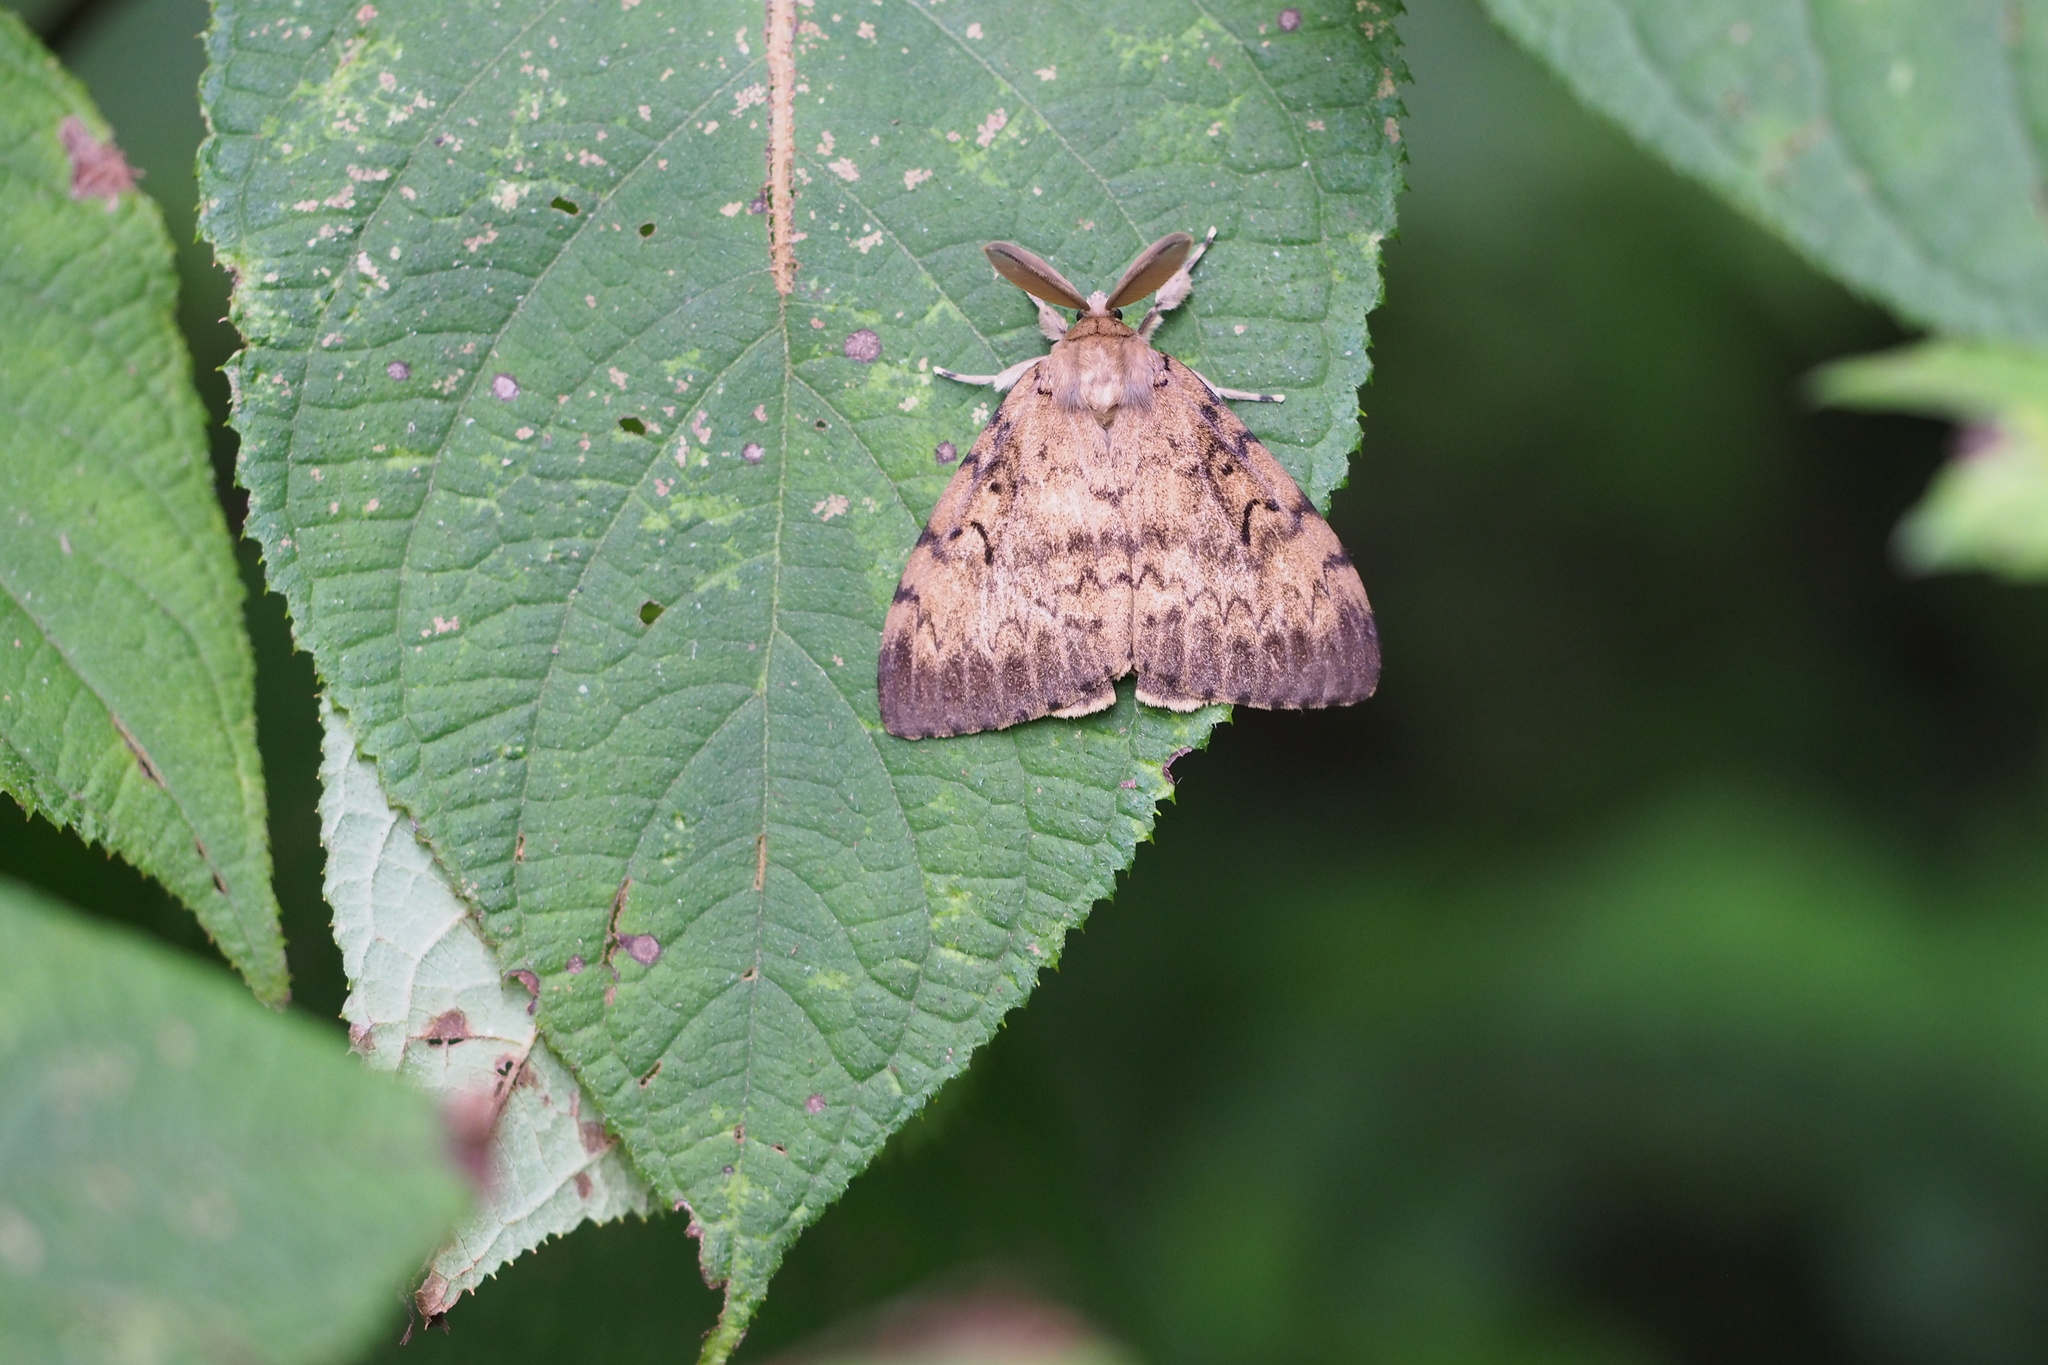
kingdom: Animalia
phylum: Arthropoda
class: Insecta
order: Lepidoptera
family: Erebidae
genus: Lymantria
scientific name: Lymantria dispar
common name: Gypsy moth
